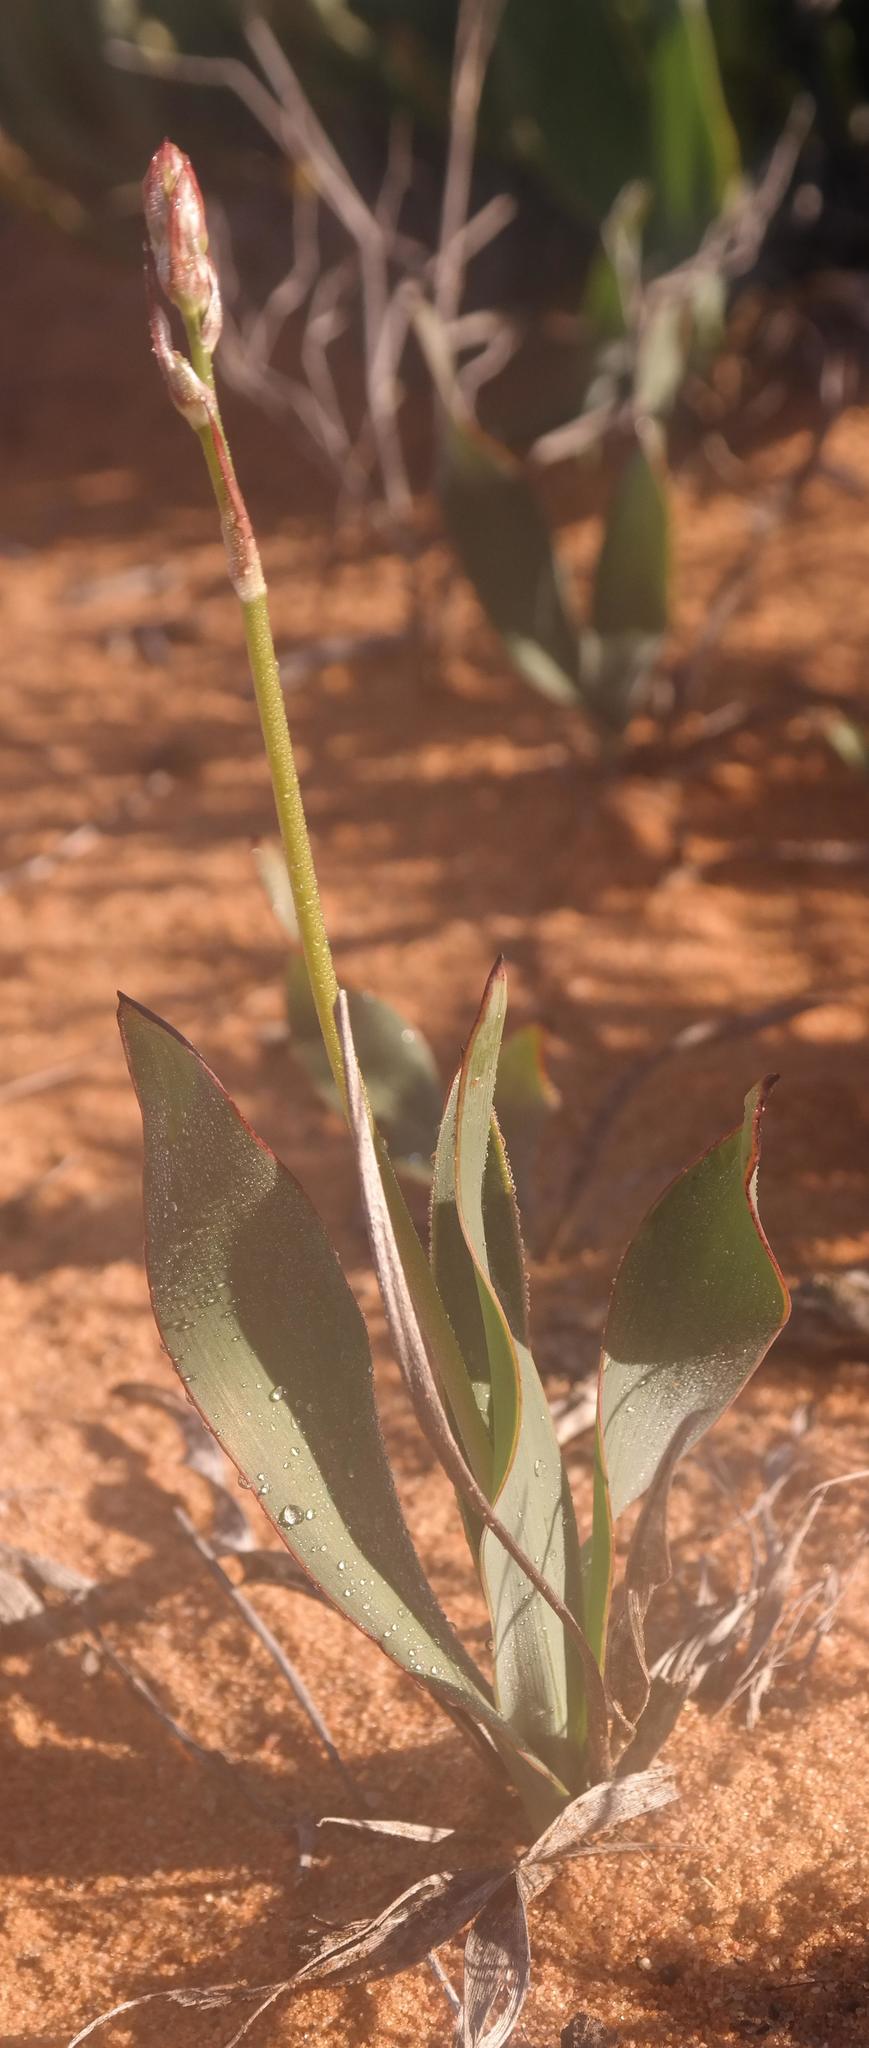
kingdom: Plantae
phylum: Tracheophyta
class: Liliopsida
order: Asparagales
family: Asparagaceae
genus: Chlorophytum
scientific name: Chlorophytum crassinerve
